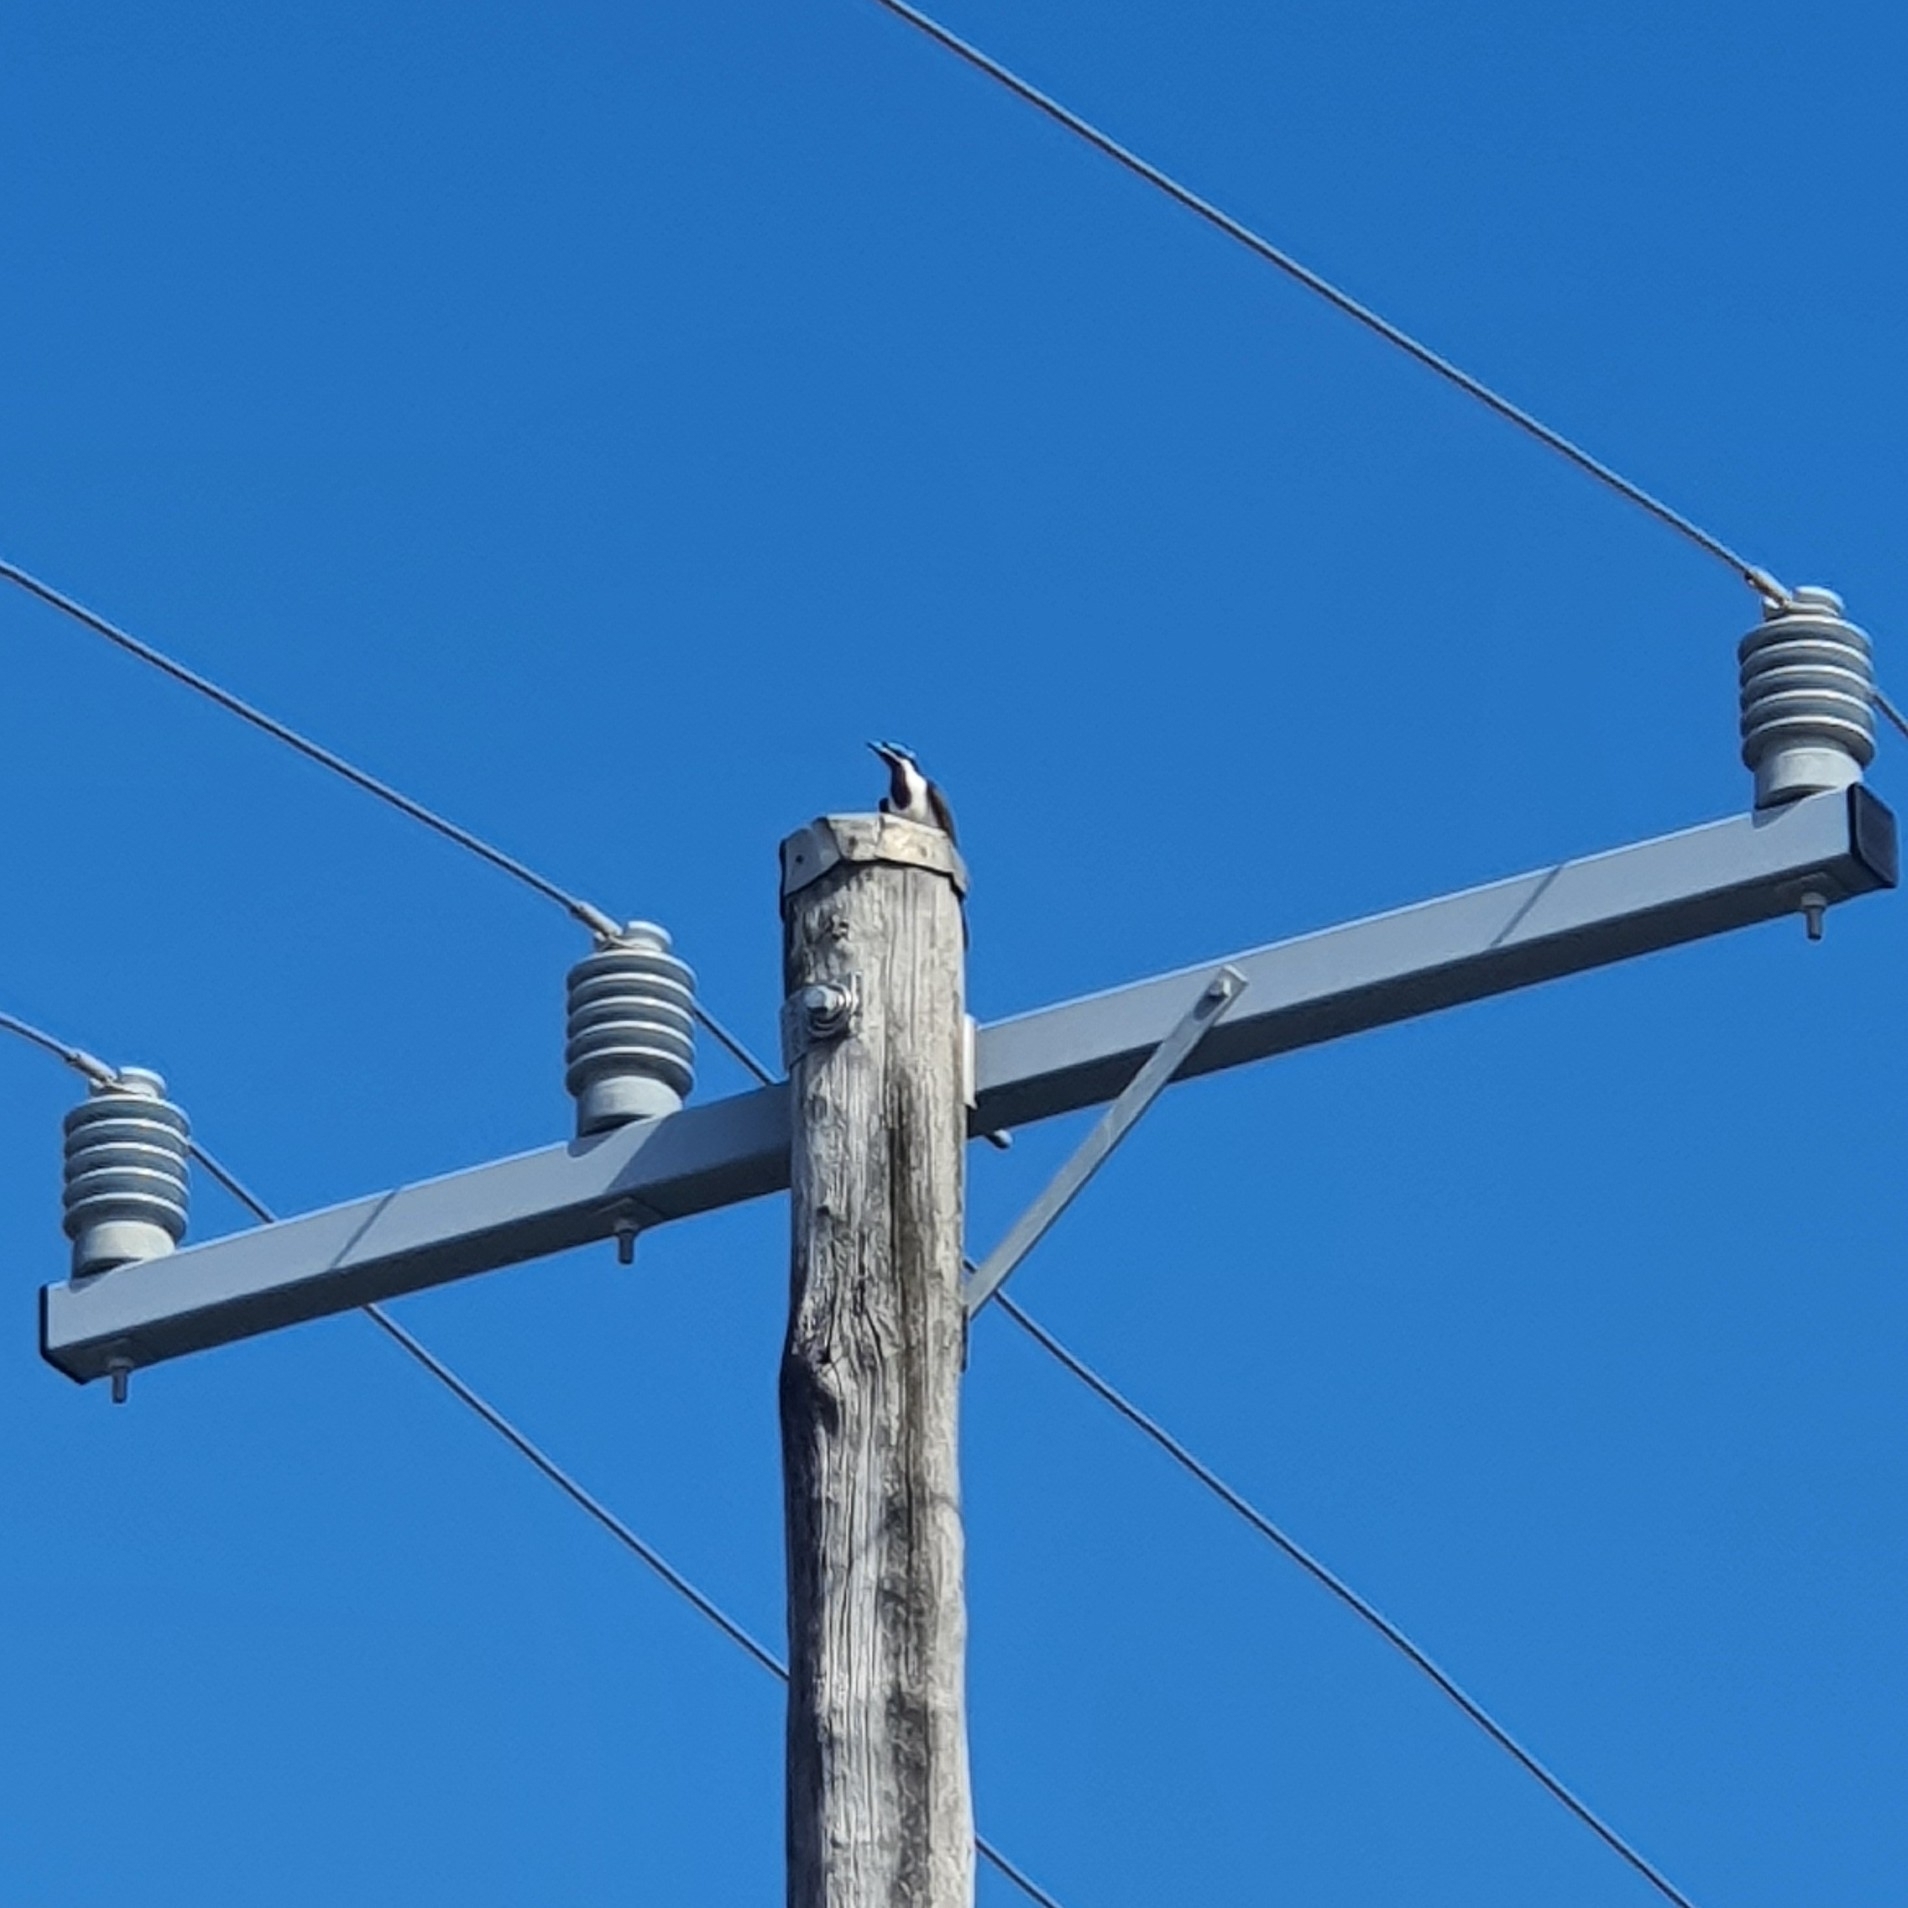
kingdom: Animalia
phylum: Chordata
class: Aves
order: Passeriformes
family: Meliphagidae
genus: Entomyzon
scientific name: Entomyzon cyanotis
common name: Blue-faced honeyeater
